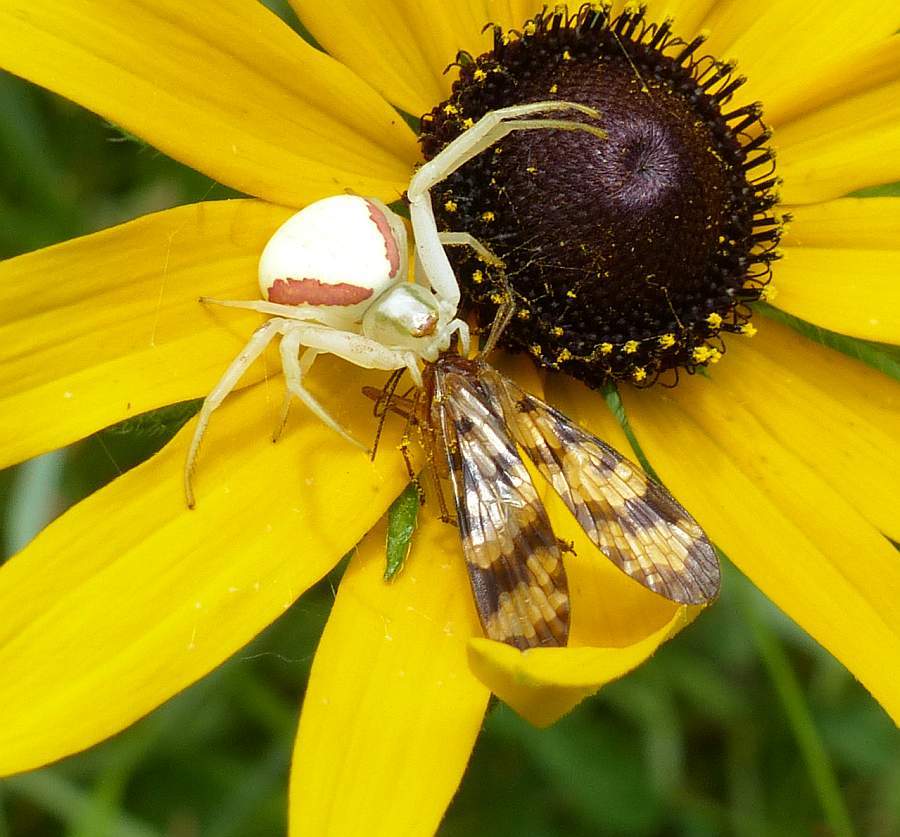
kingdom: Animalia
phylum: Arthropoda
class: Arachnida
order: Araneae
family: Thomisidae
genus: Misumena
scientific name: Misumena vatia
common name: Goldenrod crab spider
